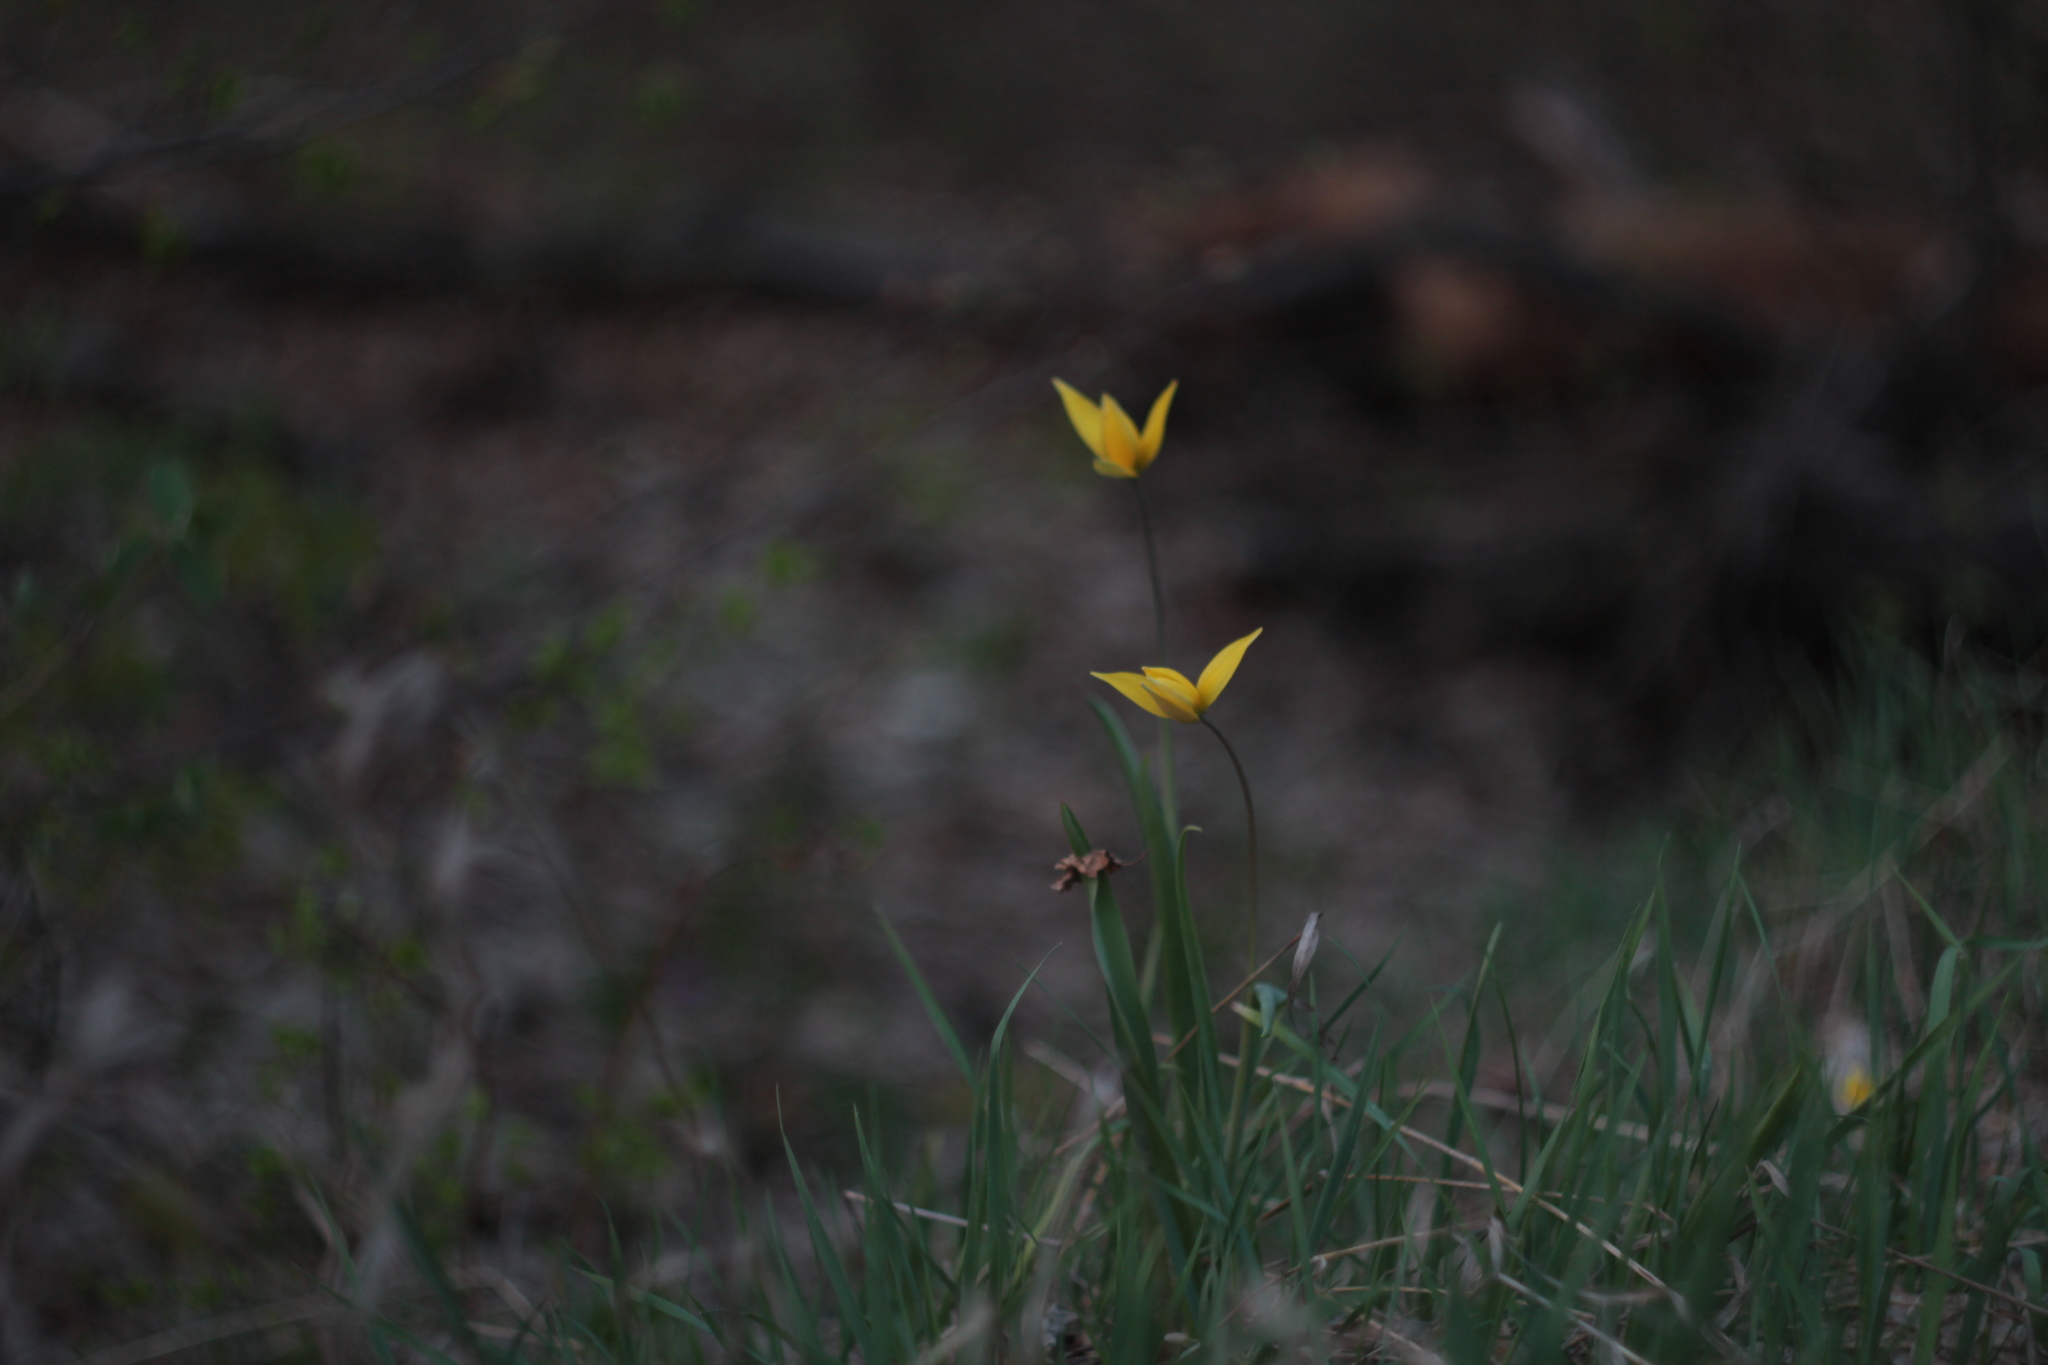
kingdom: Plantae
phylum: Tracheophyta
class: Liliopsida
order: Liliales
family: Liliaceae
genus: Tulipa
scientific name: Tulipa sylvestris
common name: Wild tulip
